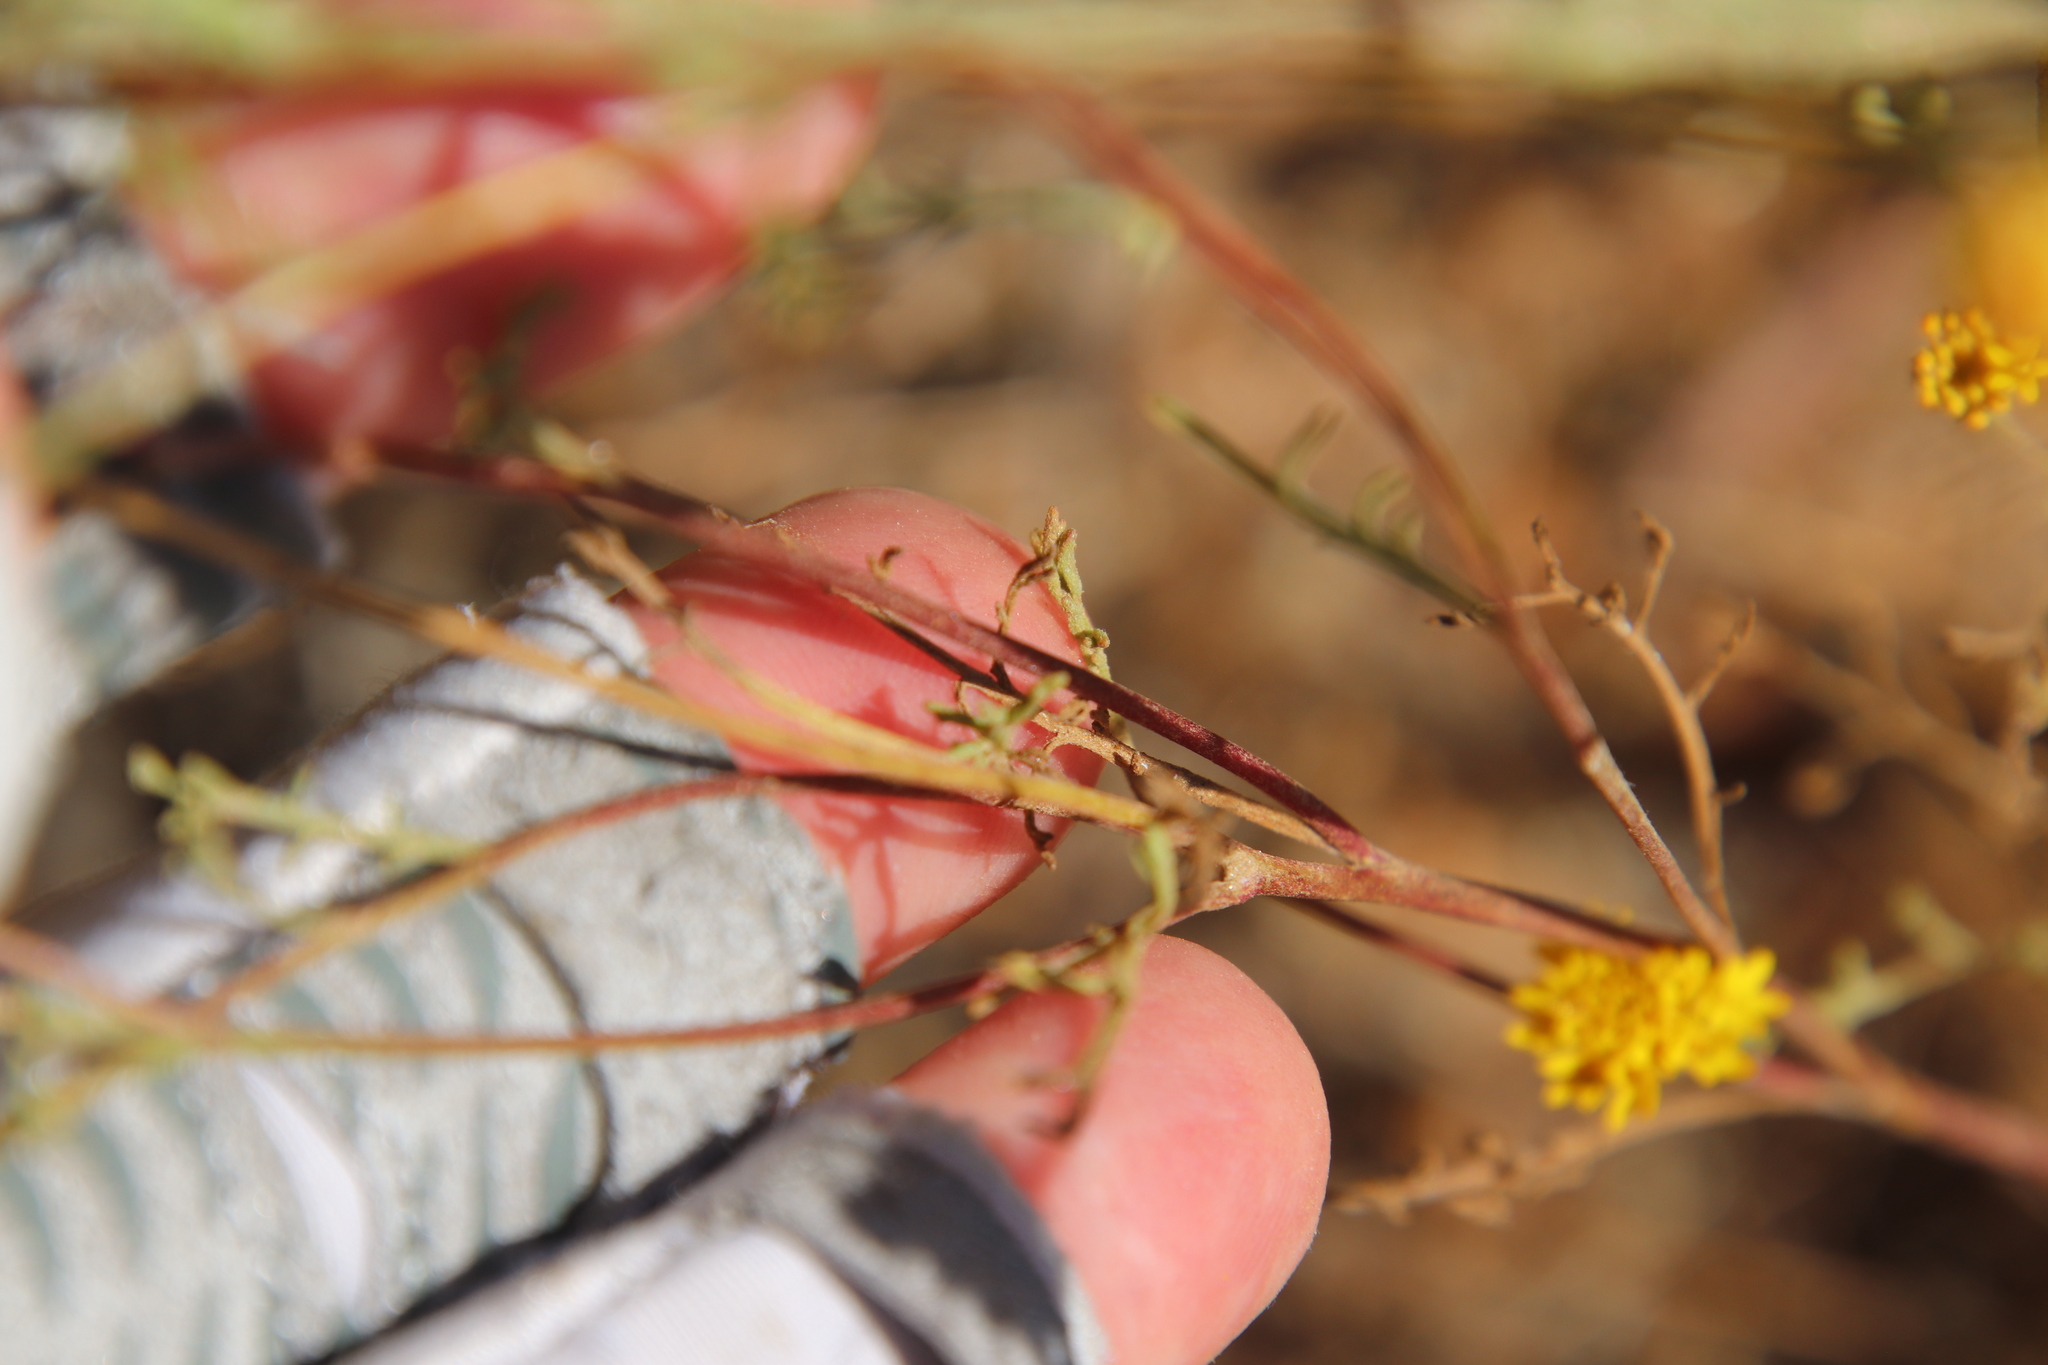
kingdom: Plantae
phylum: Tracheophyta
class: Magnoliopsida
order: Asterales
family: Asteraceae
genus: Chaenactis
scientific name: Chaenactis glabriuscula
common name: Yellow pincushion
